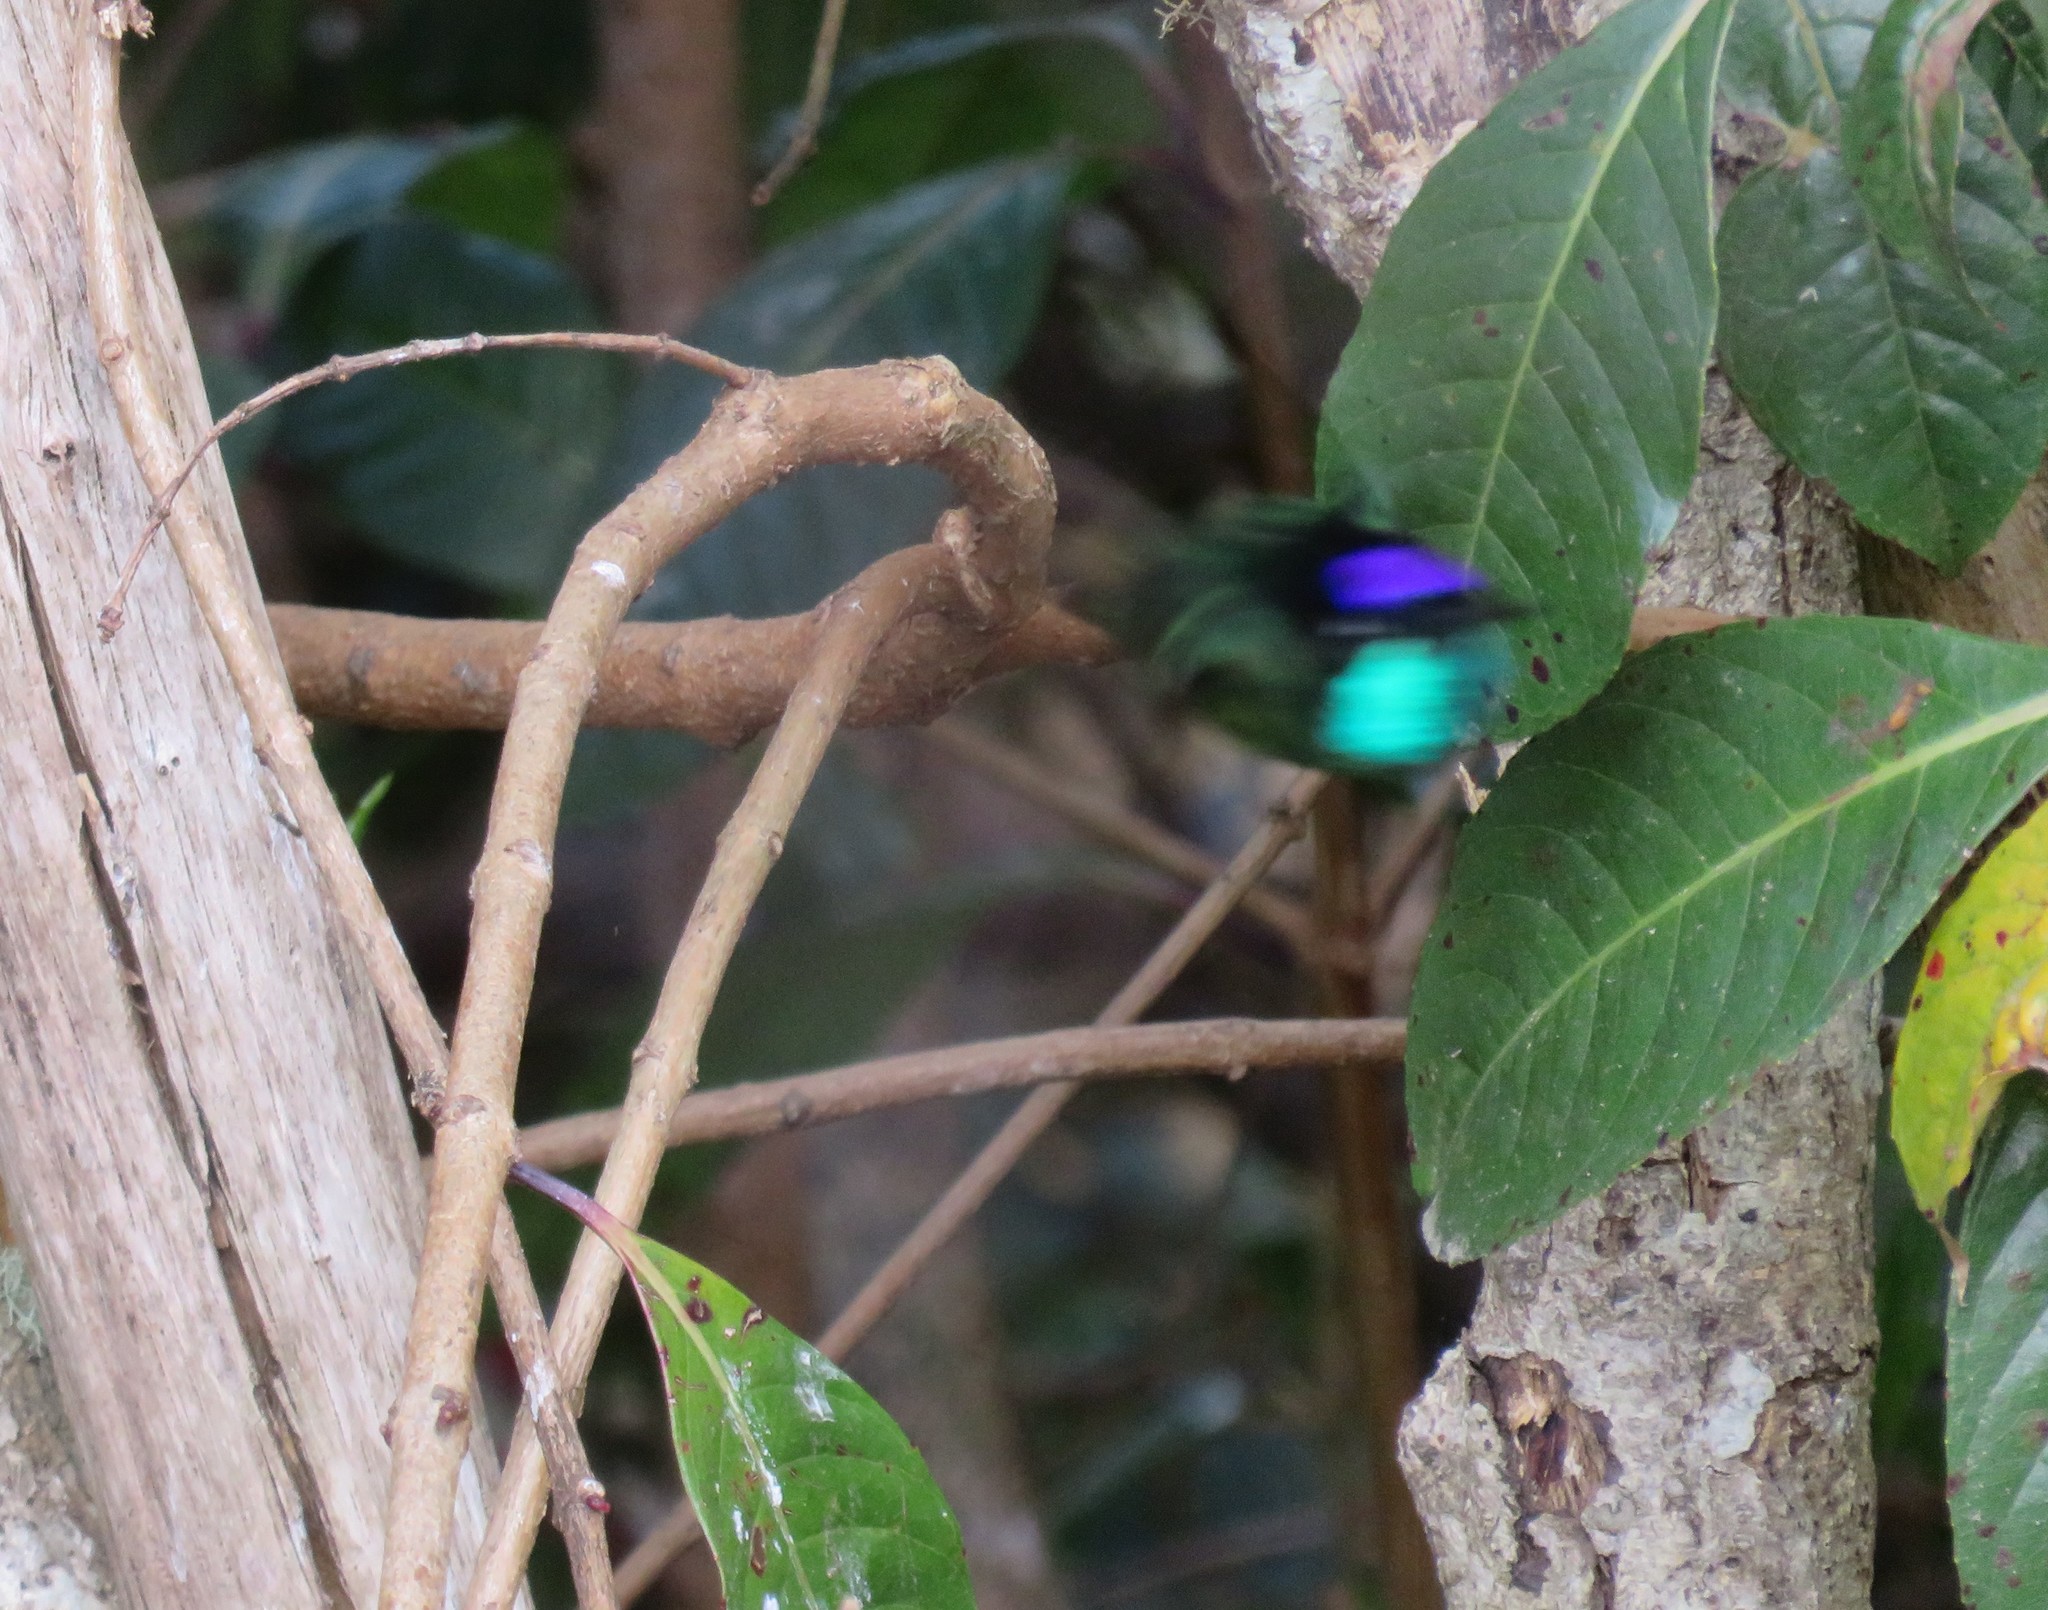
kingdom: Animalia
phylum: Chordata
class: Aves
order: Apodiformes
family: Trochilidae
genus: Eugenes
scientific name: Eugenes spectabilis
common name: Talamanca hummingbird
